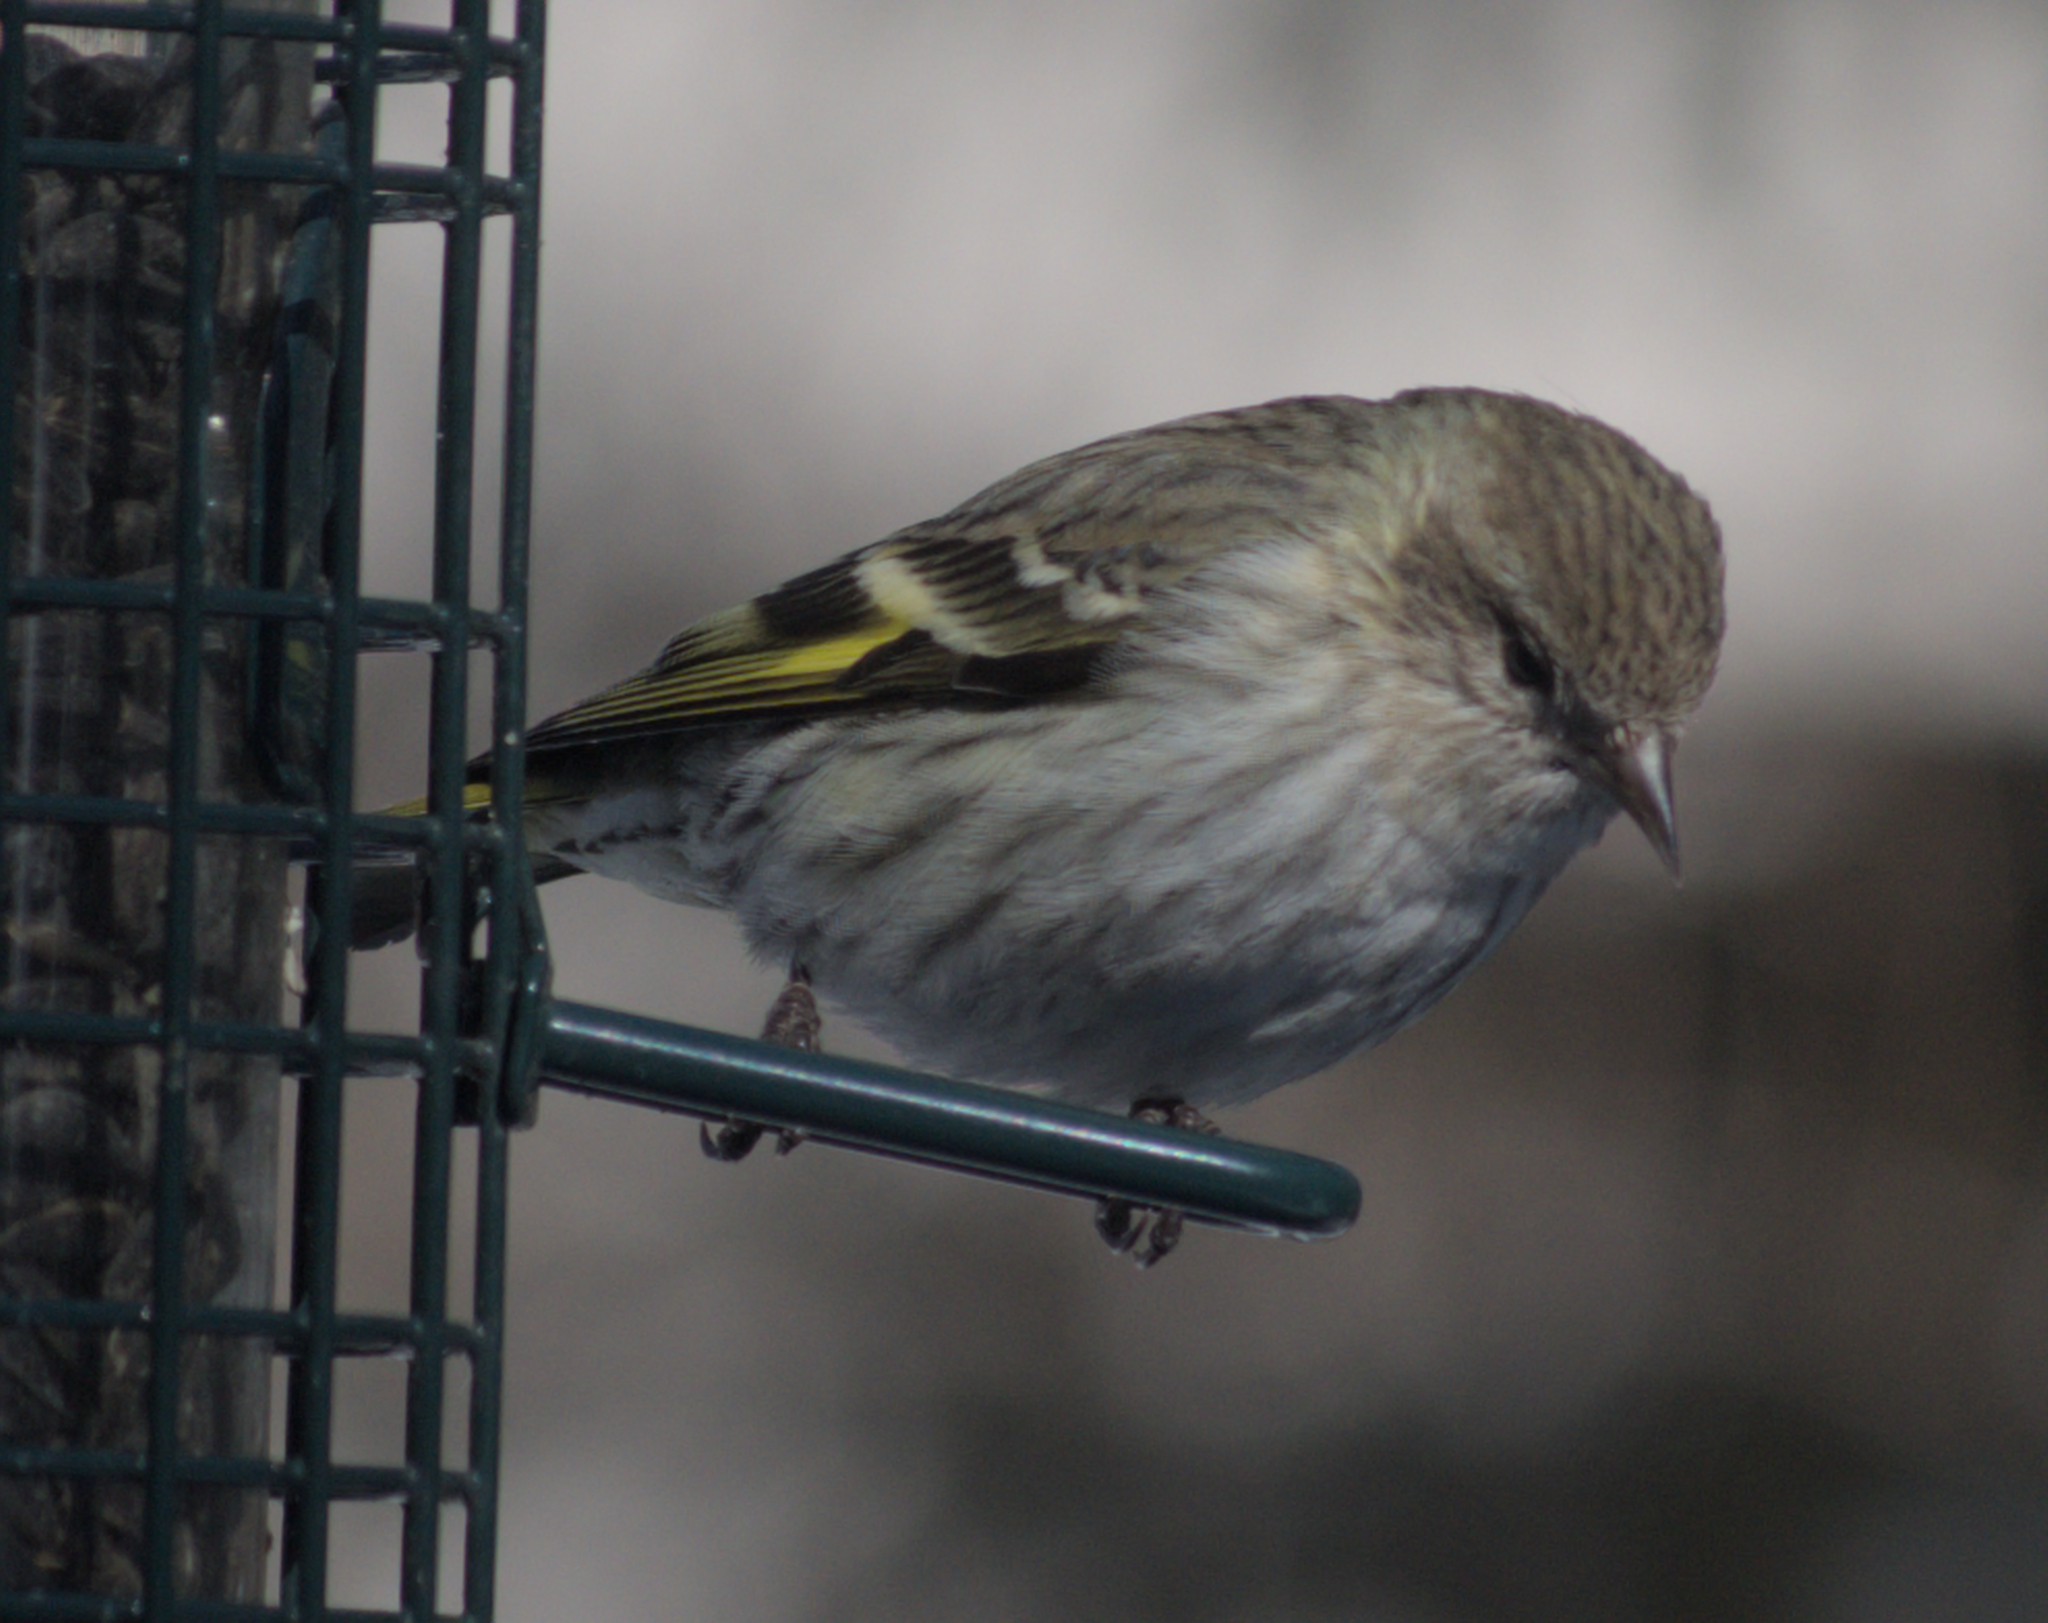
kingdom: Animalia
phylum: Chordata
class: Aves
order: Passeriformes
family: Fringillidae
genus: Spinus
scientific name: Spinus pinus
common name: Pine siskin
